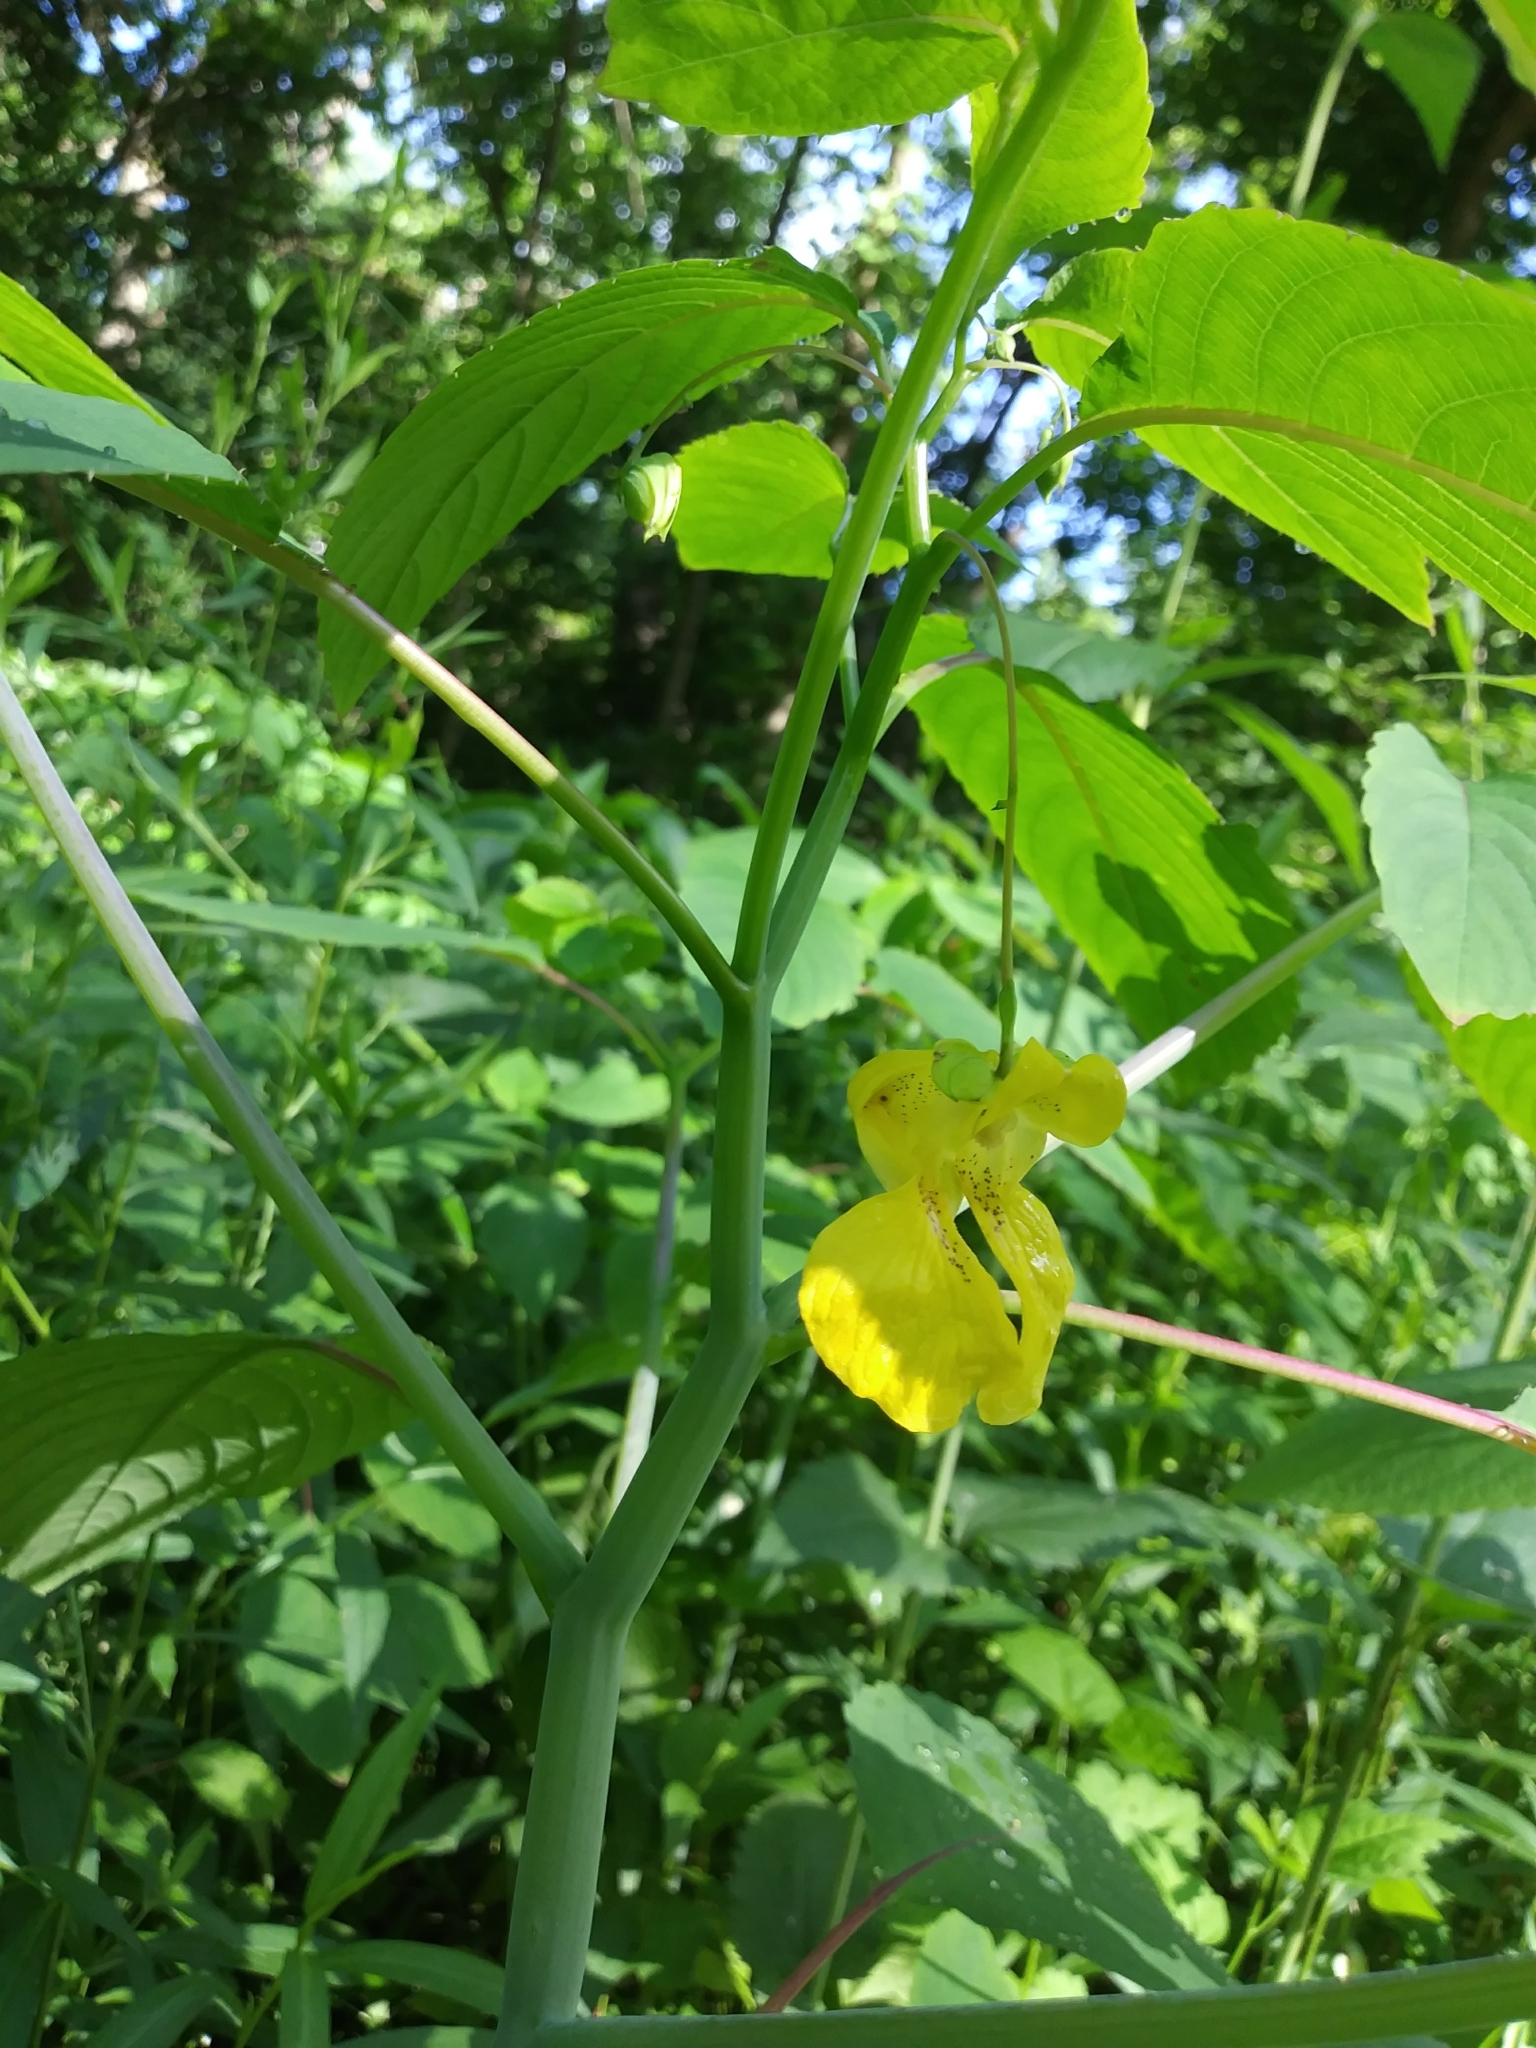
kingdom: Plantae
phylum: Tracheophyta
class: Magnoliopsida
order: Ericales
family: Balsaminaceae
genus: Impatiens
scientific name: Impatiens pallida
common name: Pale snapweed
